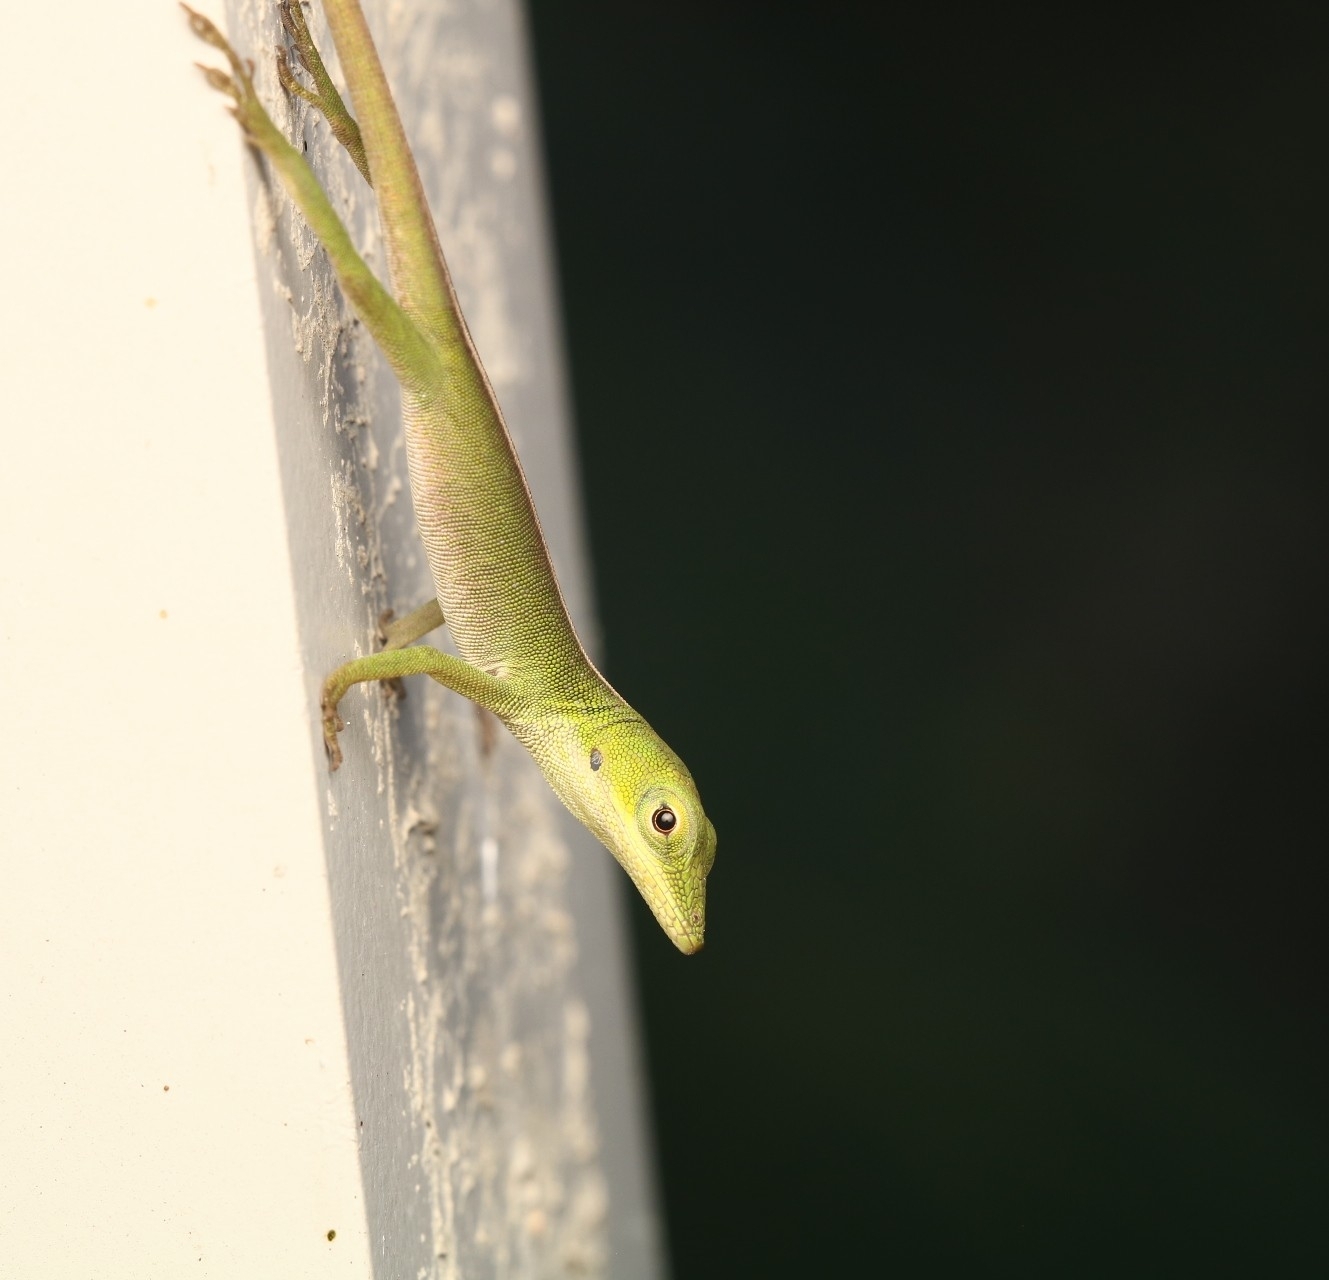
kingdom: Animalia
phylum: Chordata
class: Squamata
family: Dactyloidae
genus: Anolis
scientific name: Anolis porcatus
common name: Cuban green anole
